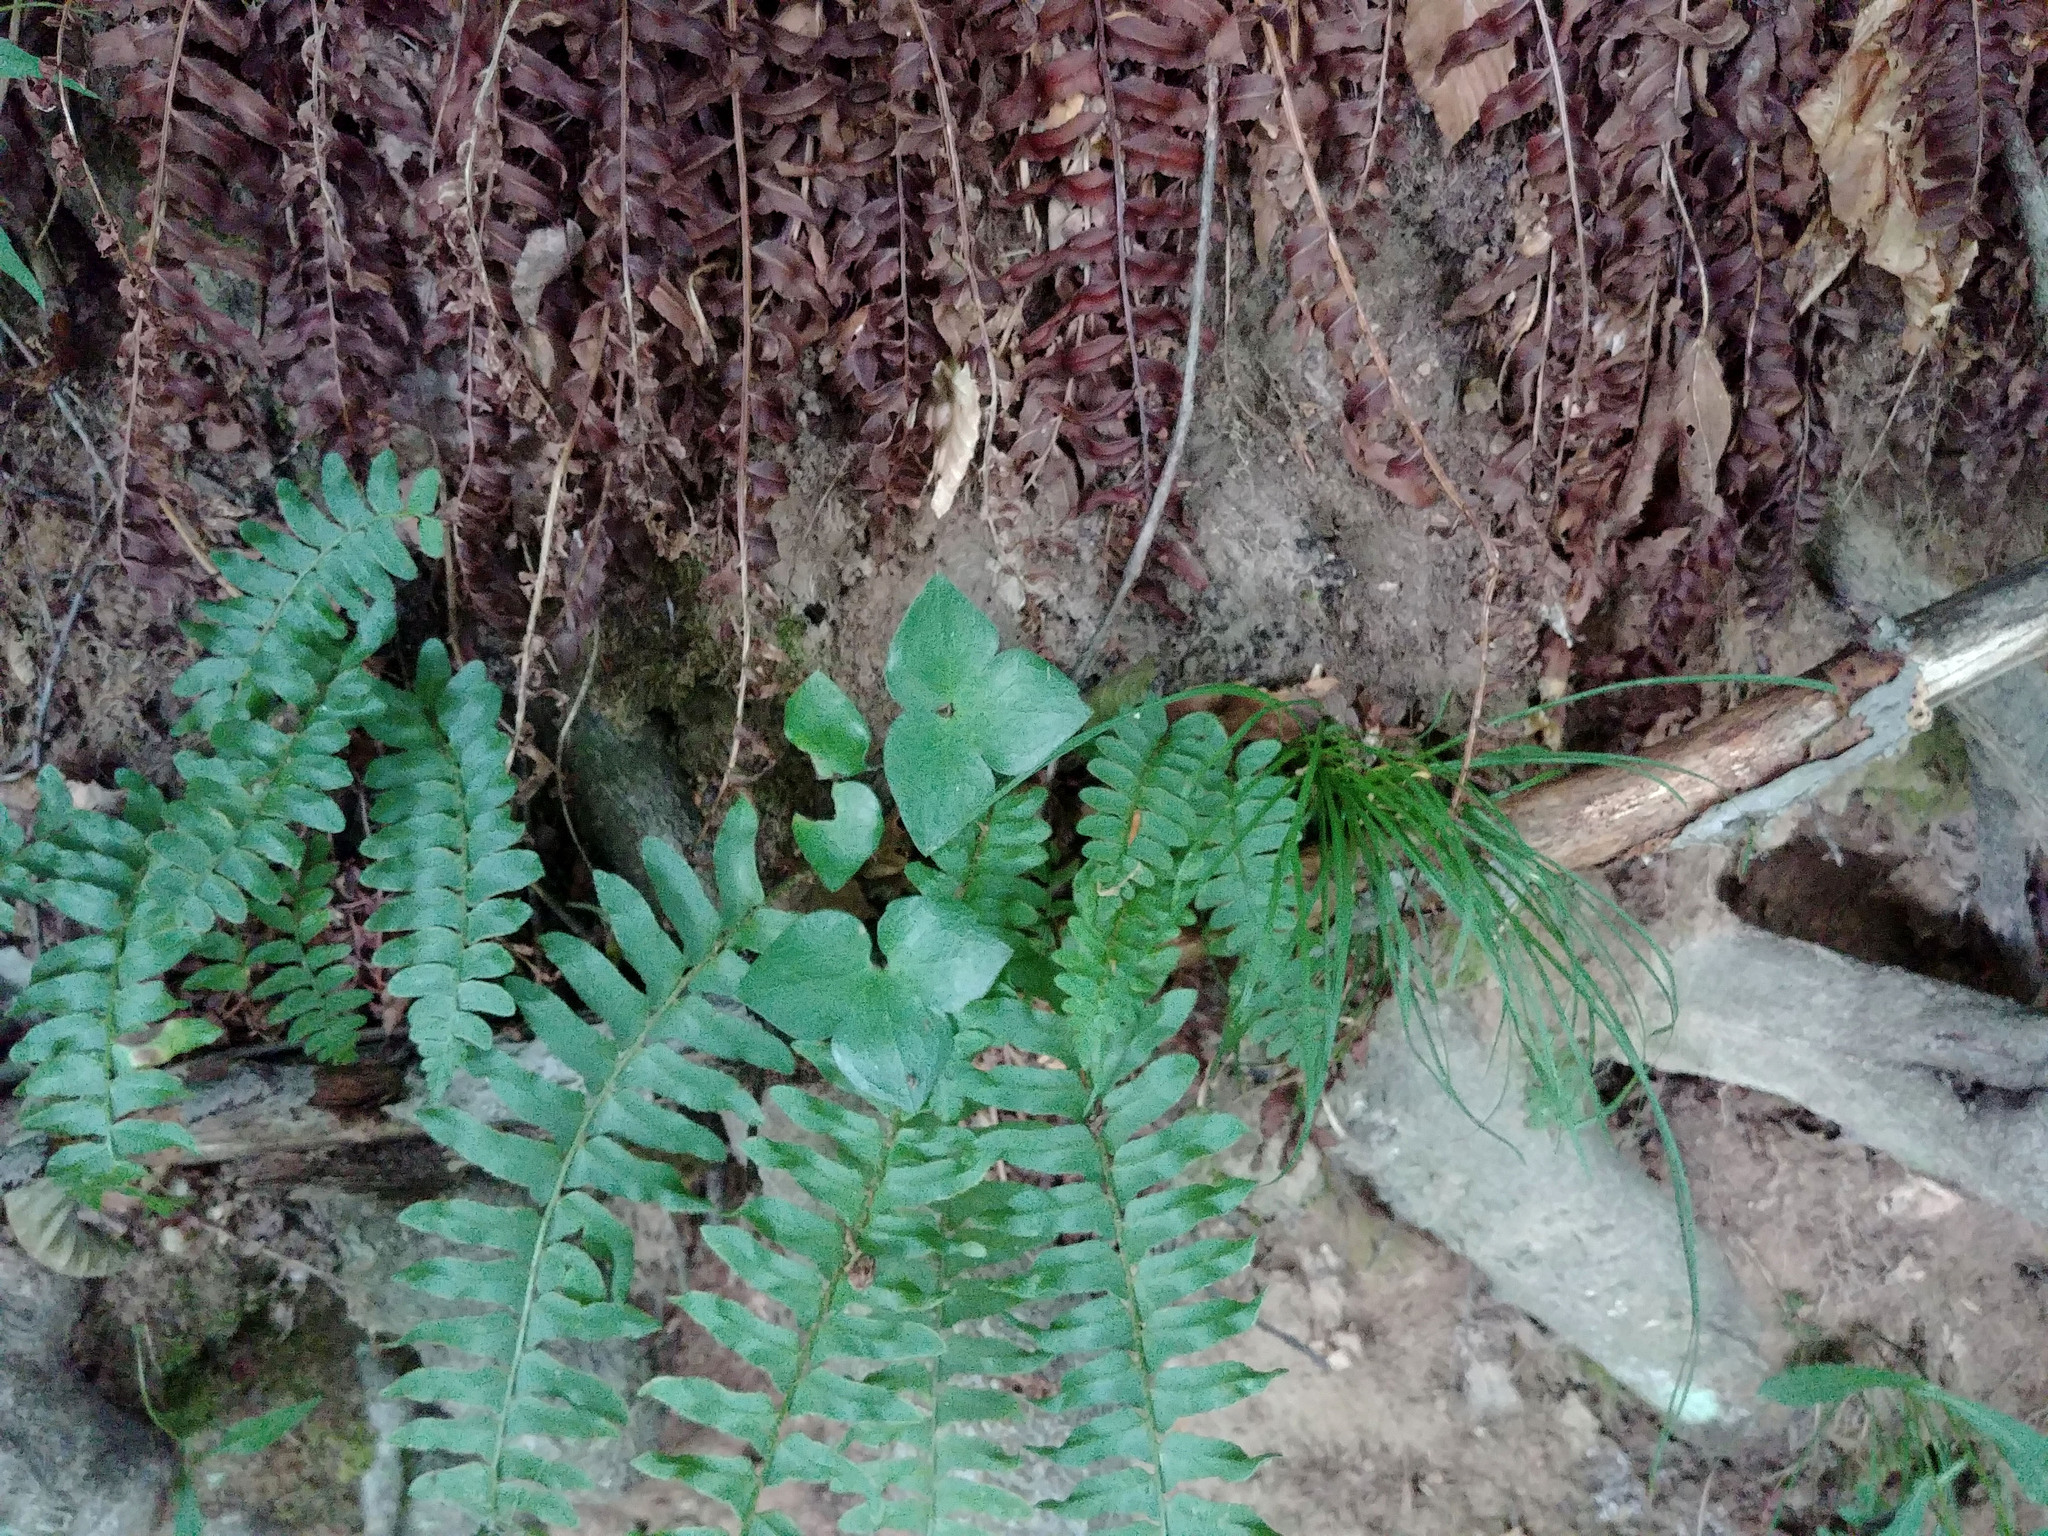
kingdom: Plantae
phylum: Tracheophyta
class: Magnoliopsida
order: Ranunculales
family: Ranunculaceae
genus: Hepatica
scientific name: Hepatica acutiloba
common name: Sharp-lobed hepatica
